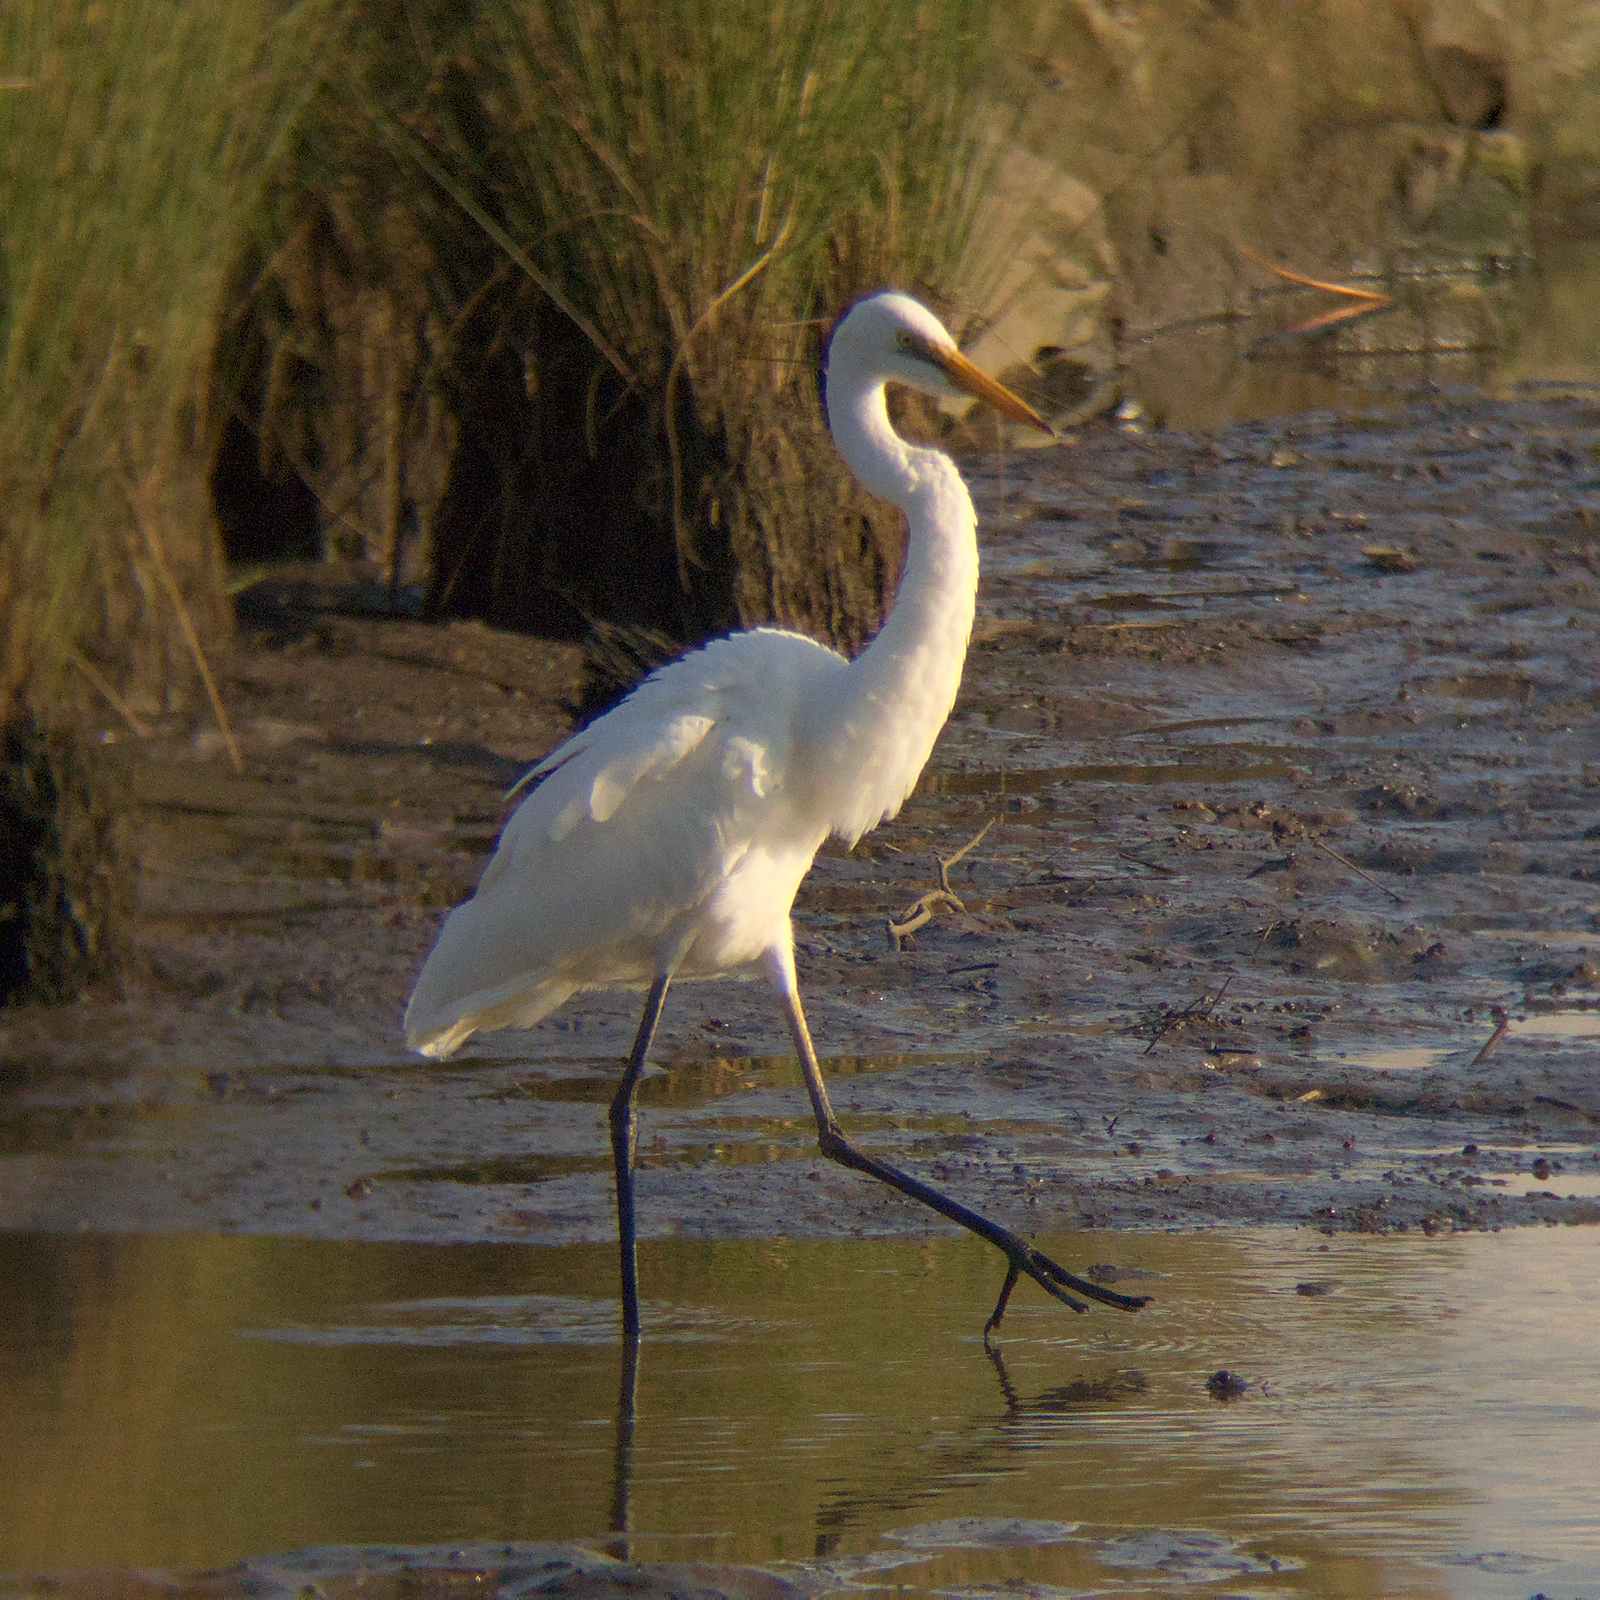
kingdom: Animalia
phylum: Chordata
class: Aves
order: Pelecaniformes
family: Ardeidae
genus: Ardea
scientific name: Ardea alba
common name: Great egret
